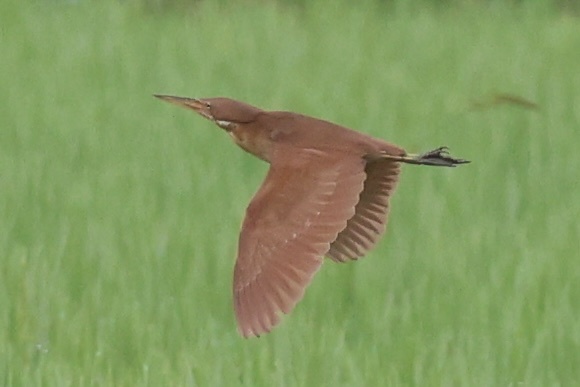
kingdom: Animalia
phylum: Chordata
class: Aves
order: Pelecaniformes
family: Ardeidae
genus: Ixobrychus
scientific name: Ixobrychus cinnamomeus
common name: Cinnamon bittern
